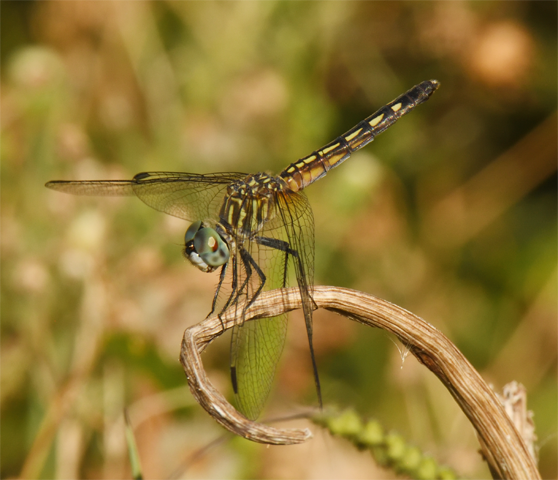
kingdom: Animalia
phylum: Arthropoda
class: Insecta
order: Odonata
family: Libellulidae
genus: Pachydiplax
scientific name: Pachydiplax longipennis
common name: Blue dasher
